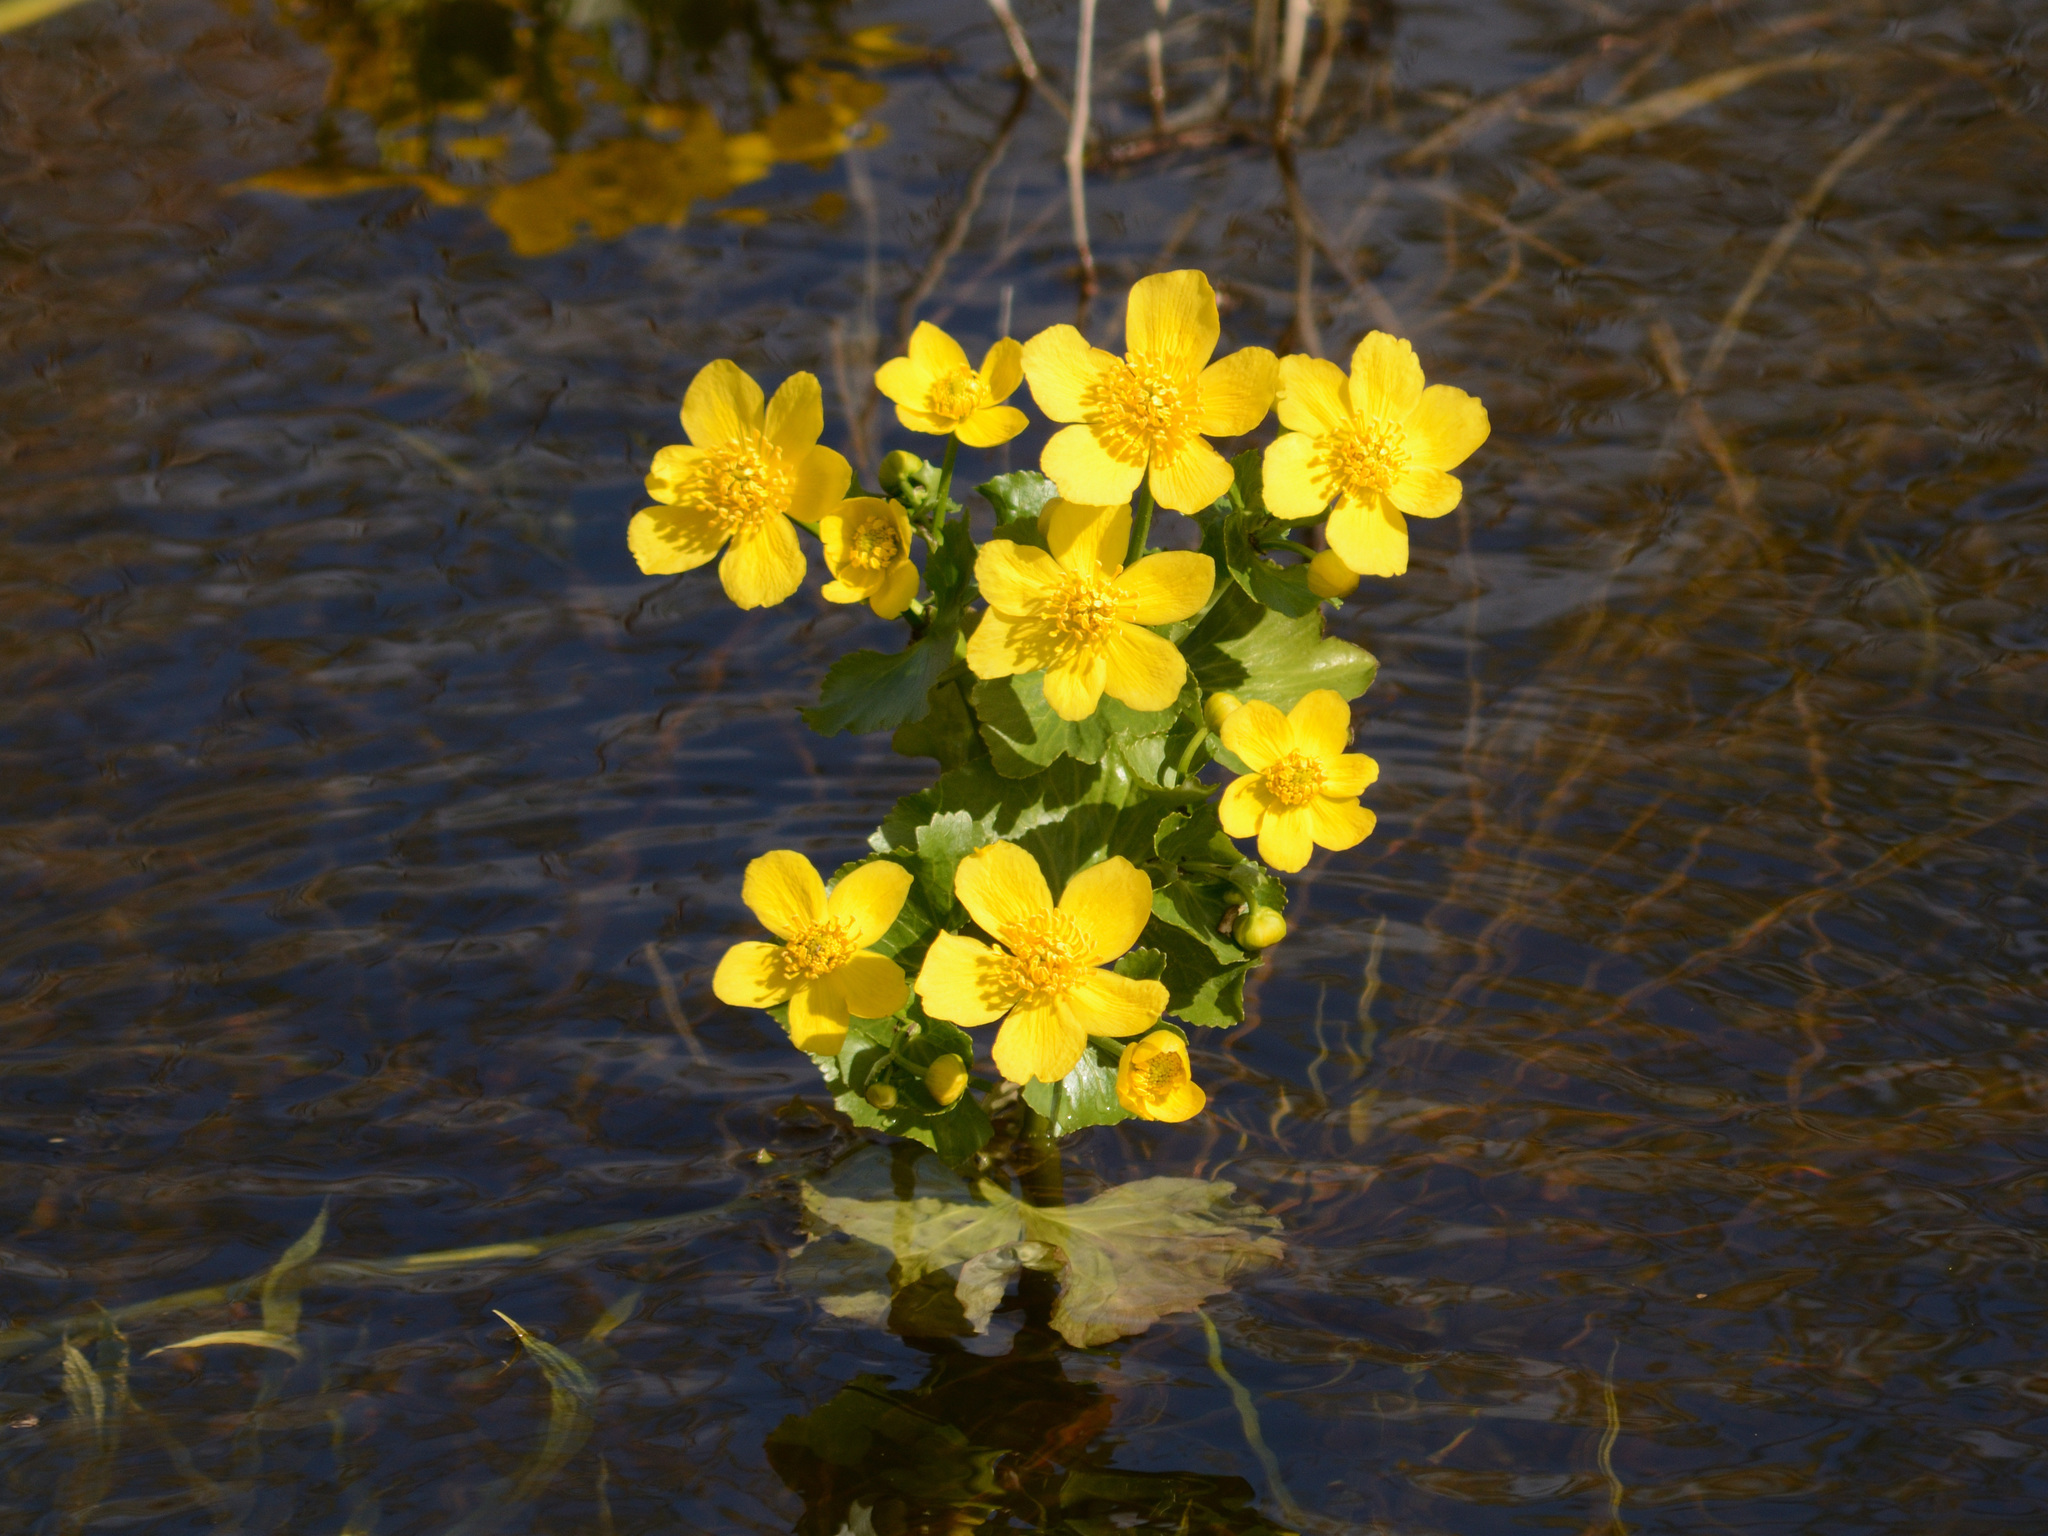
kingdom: Plantae
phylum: Tracheophyta
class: Magnoliopsida
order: Ranunculales
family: Ranunculaceae
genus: Caltha
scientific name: Caltha palustris
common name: Marsh marigold
